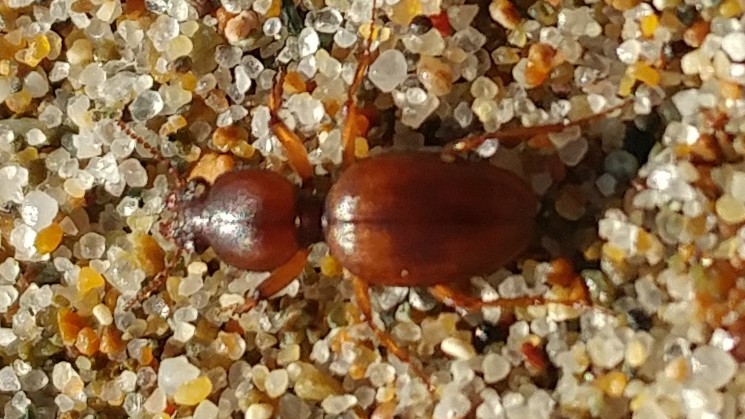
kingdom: Animalia
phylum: Arthropoda
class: Insecta
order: Coleoptera
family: Carabidae
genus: Akephorus
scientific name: Akephorus marinus
